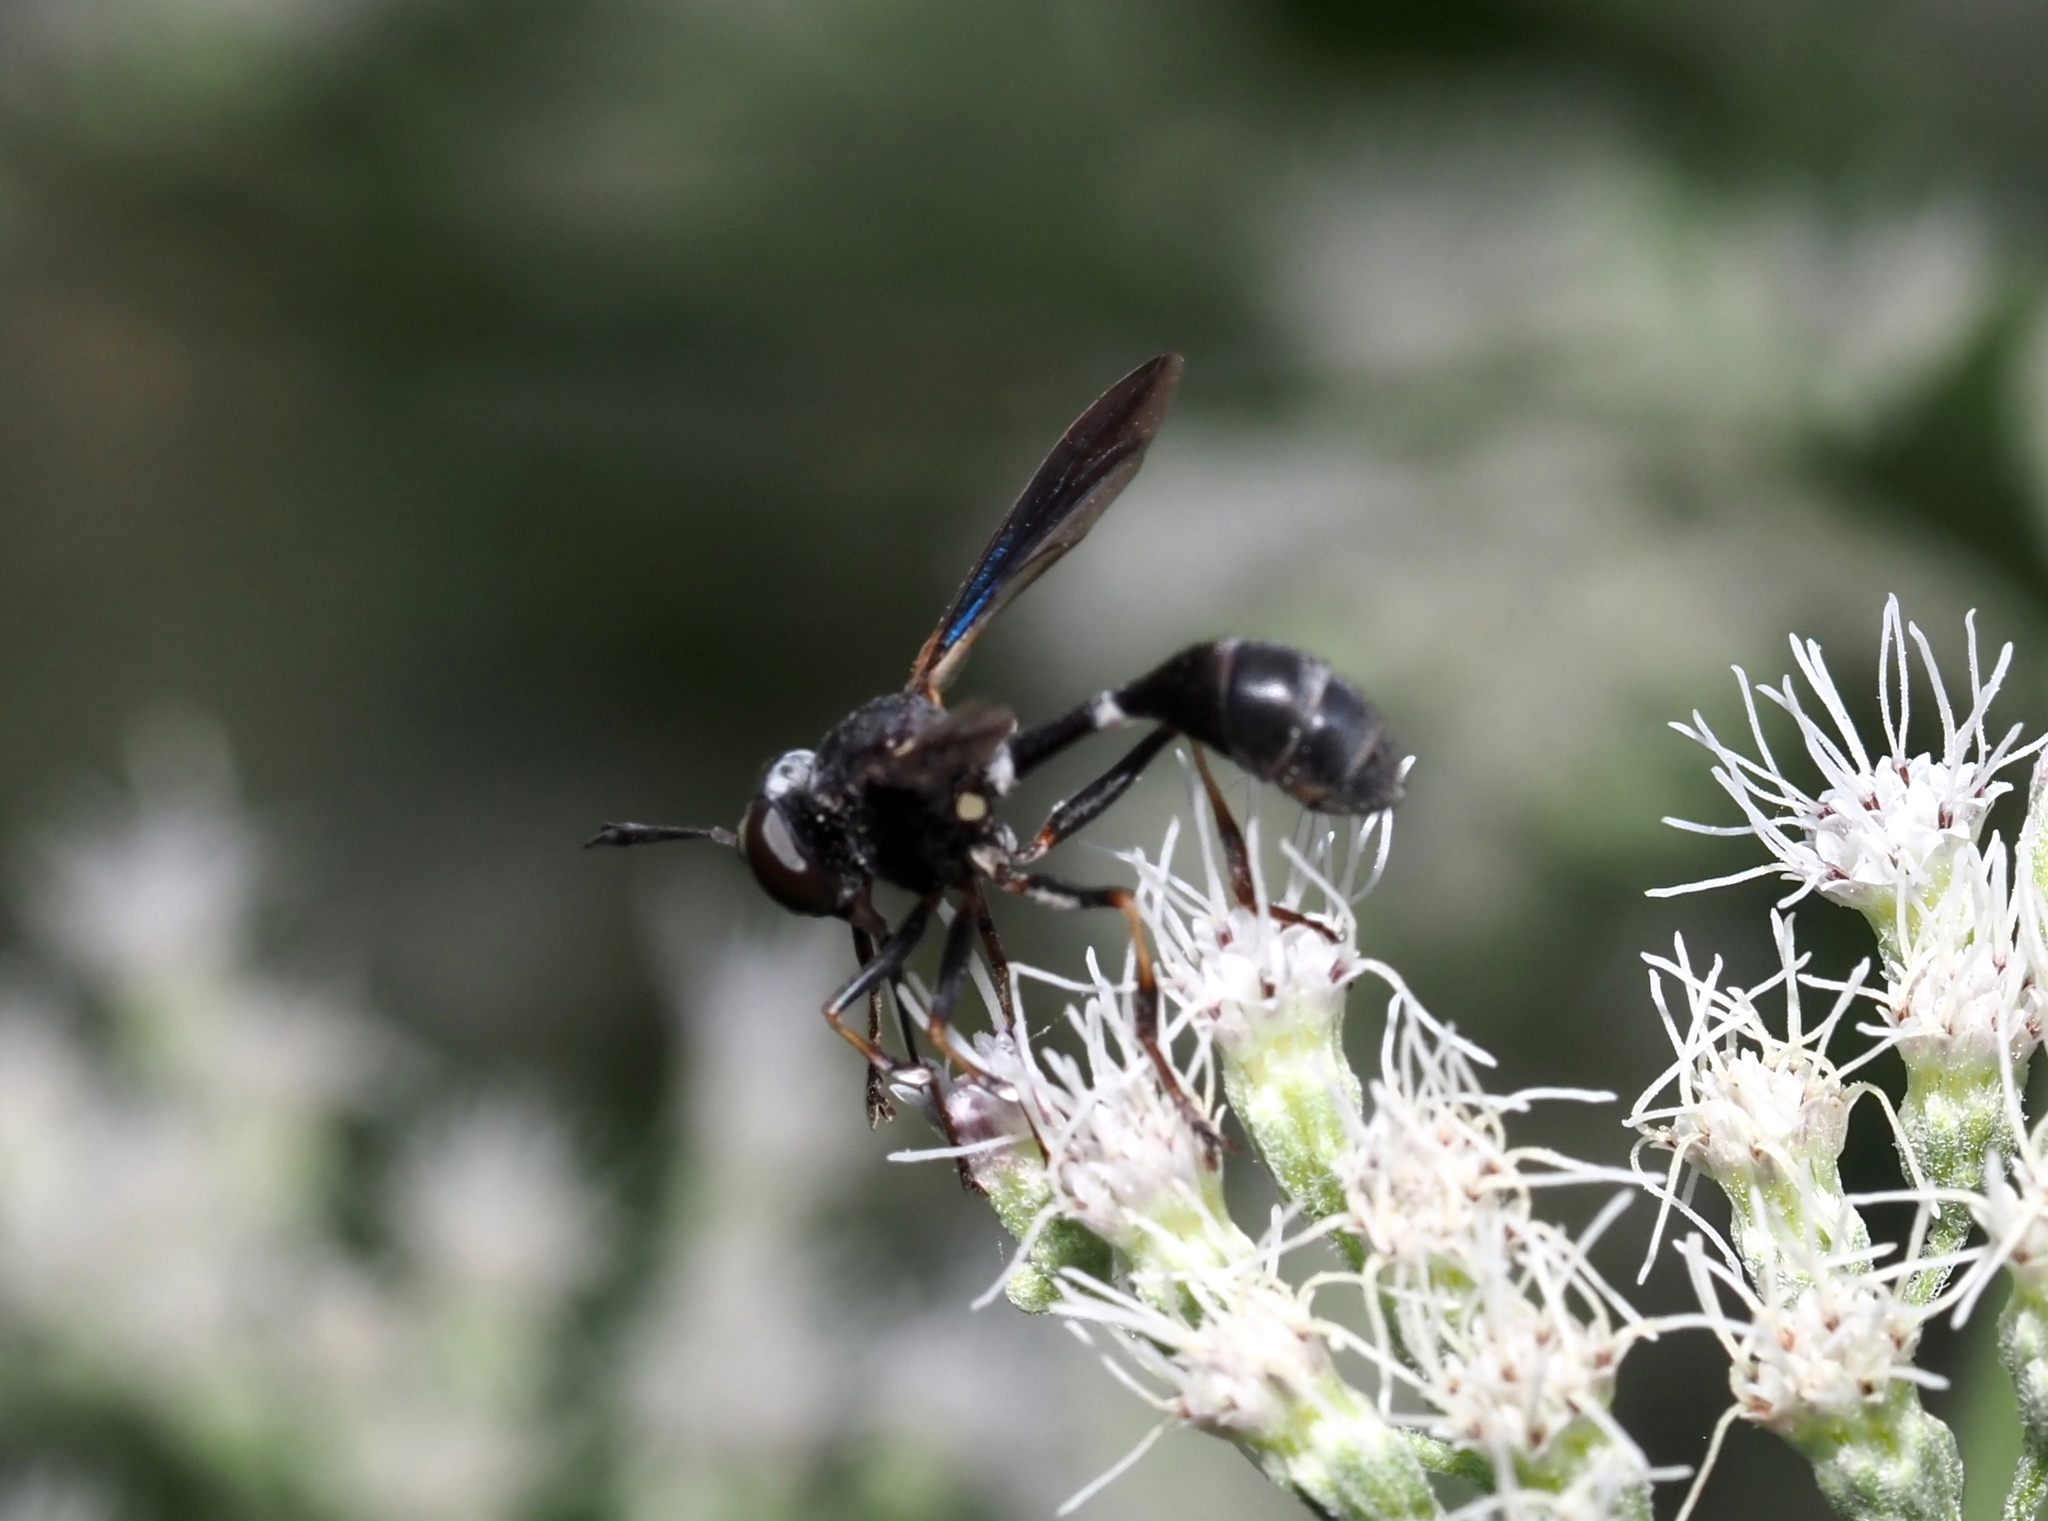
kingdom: Animalia
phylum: Arthropoda
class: Insecta
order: Diptera
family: Conopidae
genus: Physocephala
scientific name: Physocephala tibialis
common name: Common eastern physocephala
